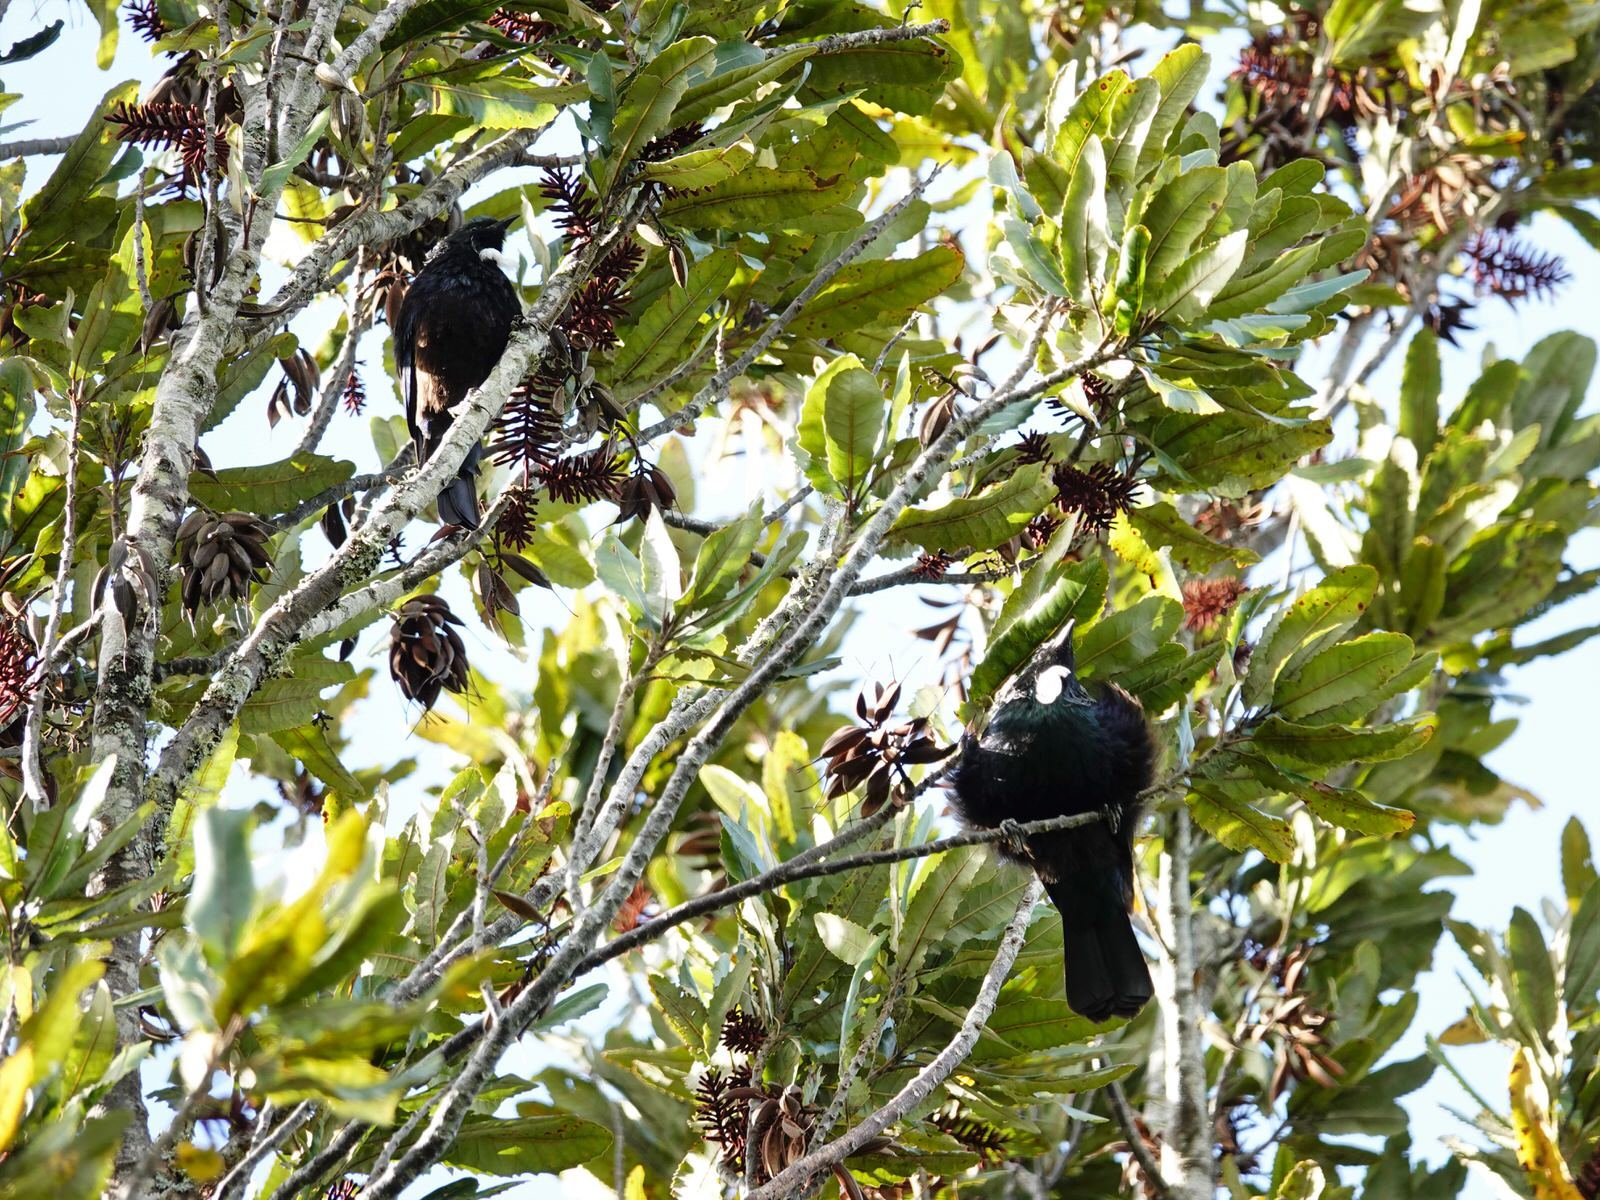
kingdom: Animalia
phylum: Chordata
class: Aves
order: Passeriformes
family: Meliphagidae
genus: Prosthemadera
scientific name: Prosthemadera novaeseelandiae
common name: Tui
